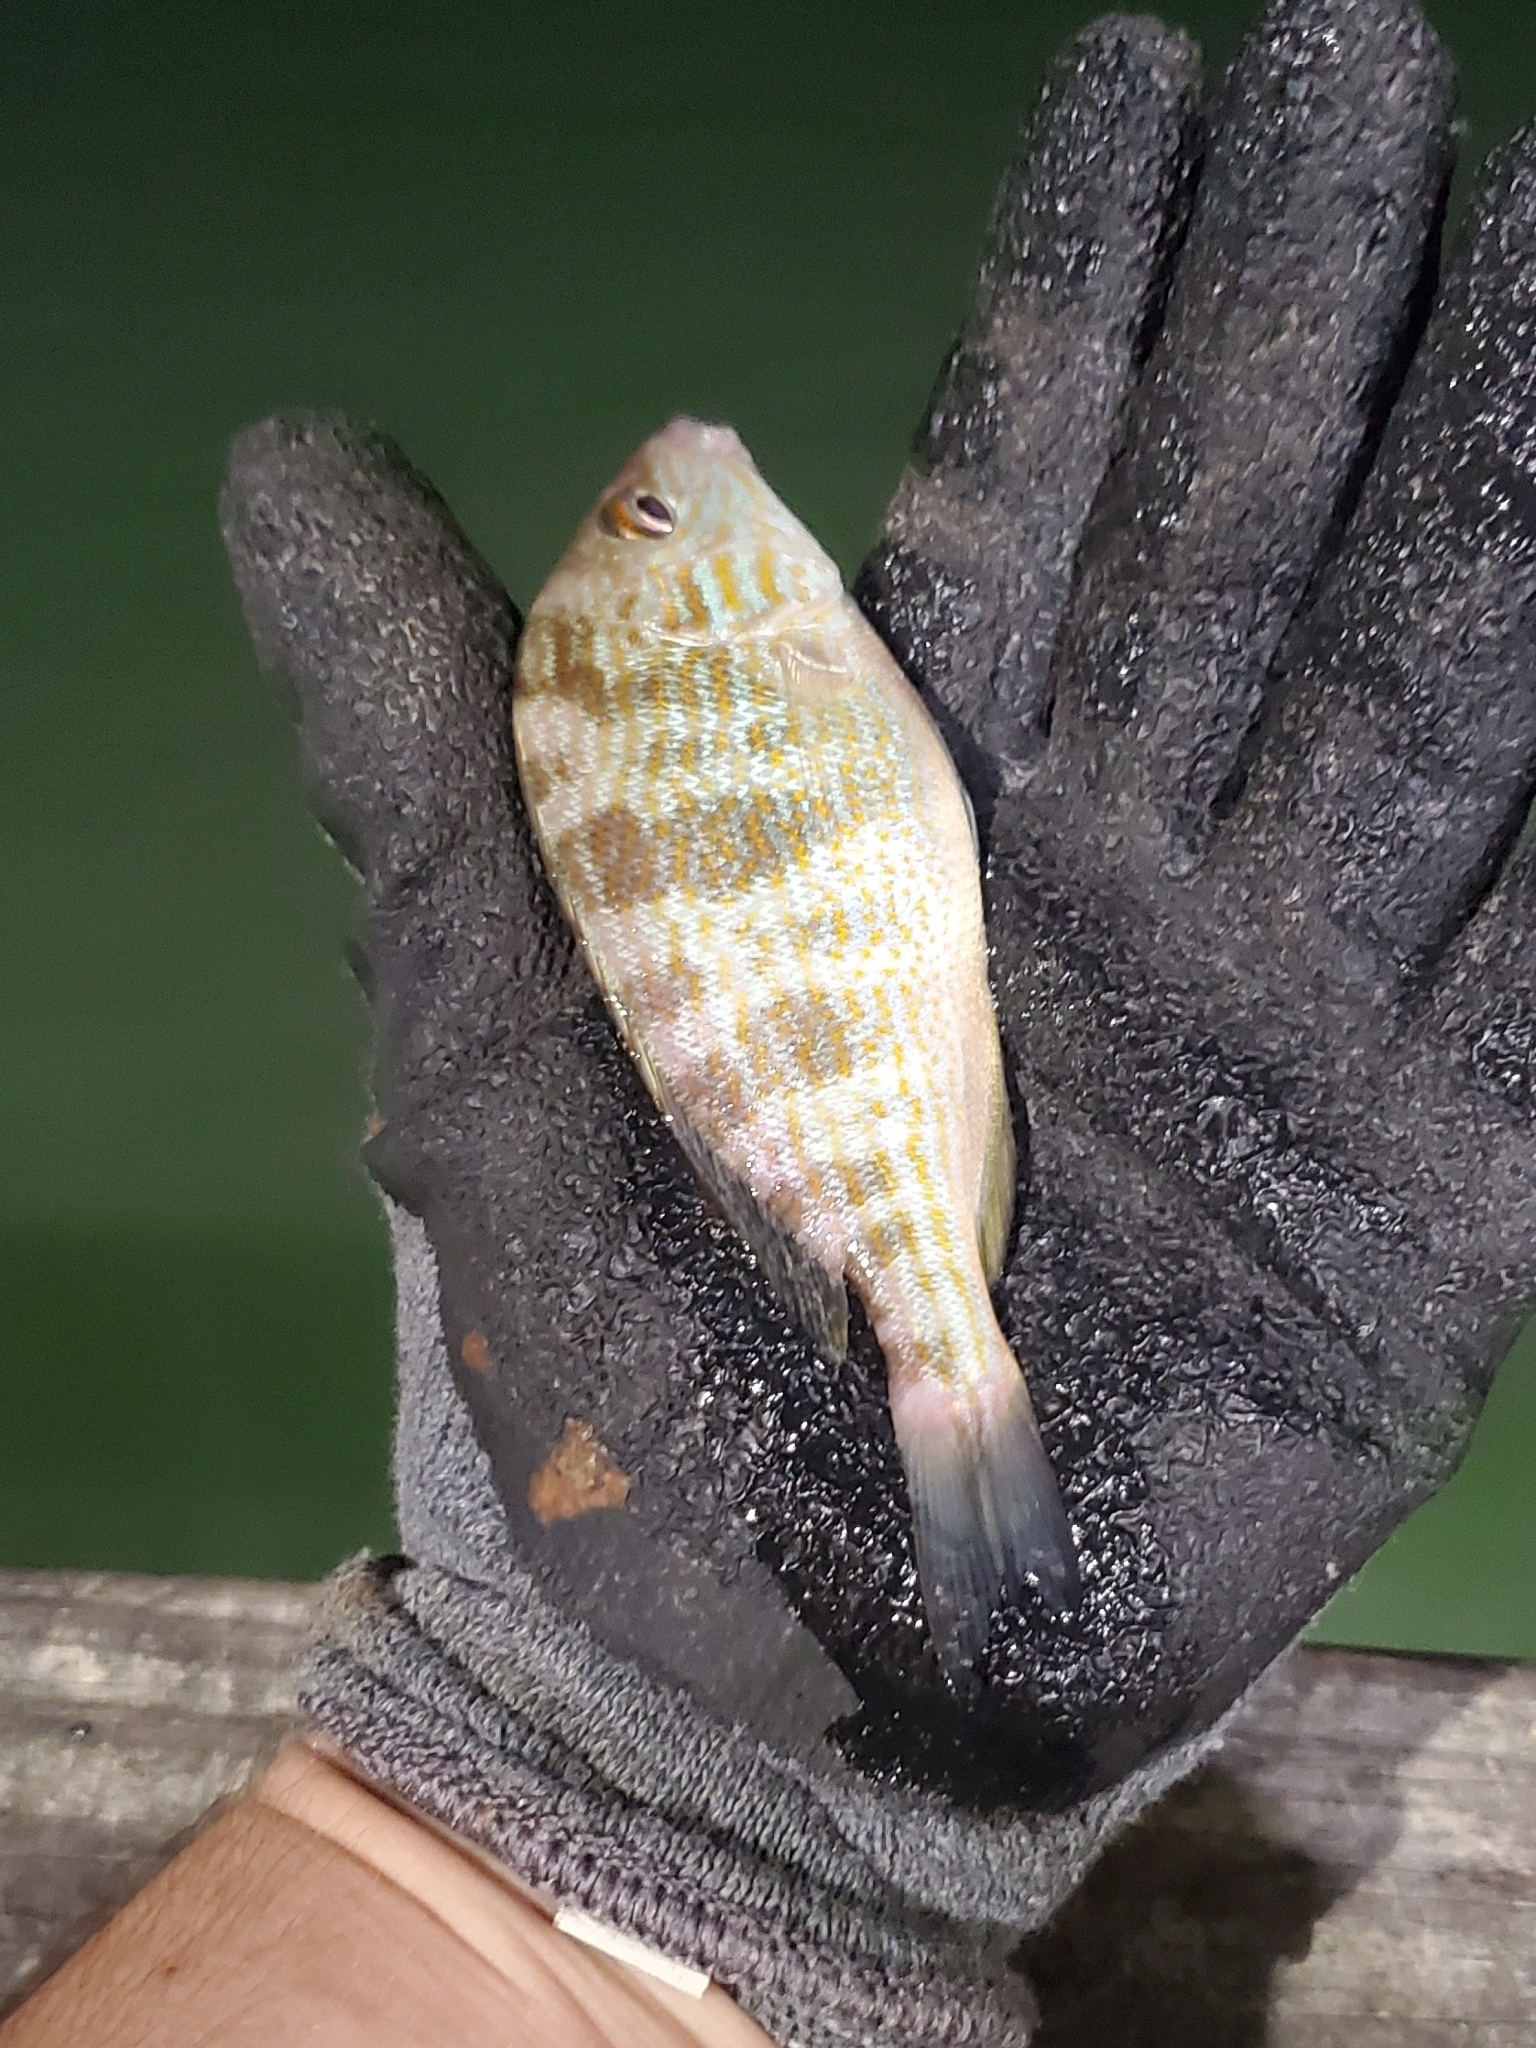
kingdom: Animalia
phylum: Chordata
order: Perciformes
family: Haemulidae
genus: Orthopristis
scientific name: Orthopristis chrysoptera
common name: Pigfish
